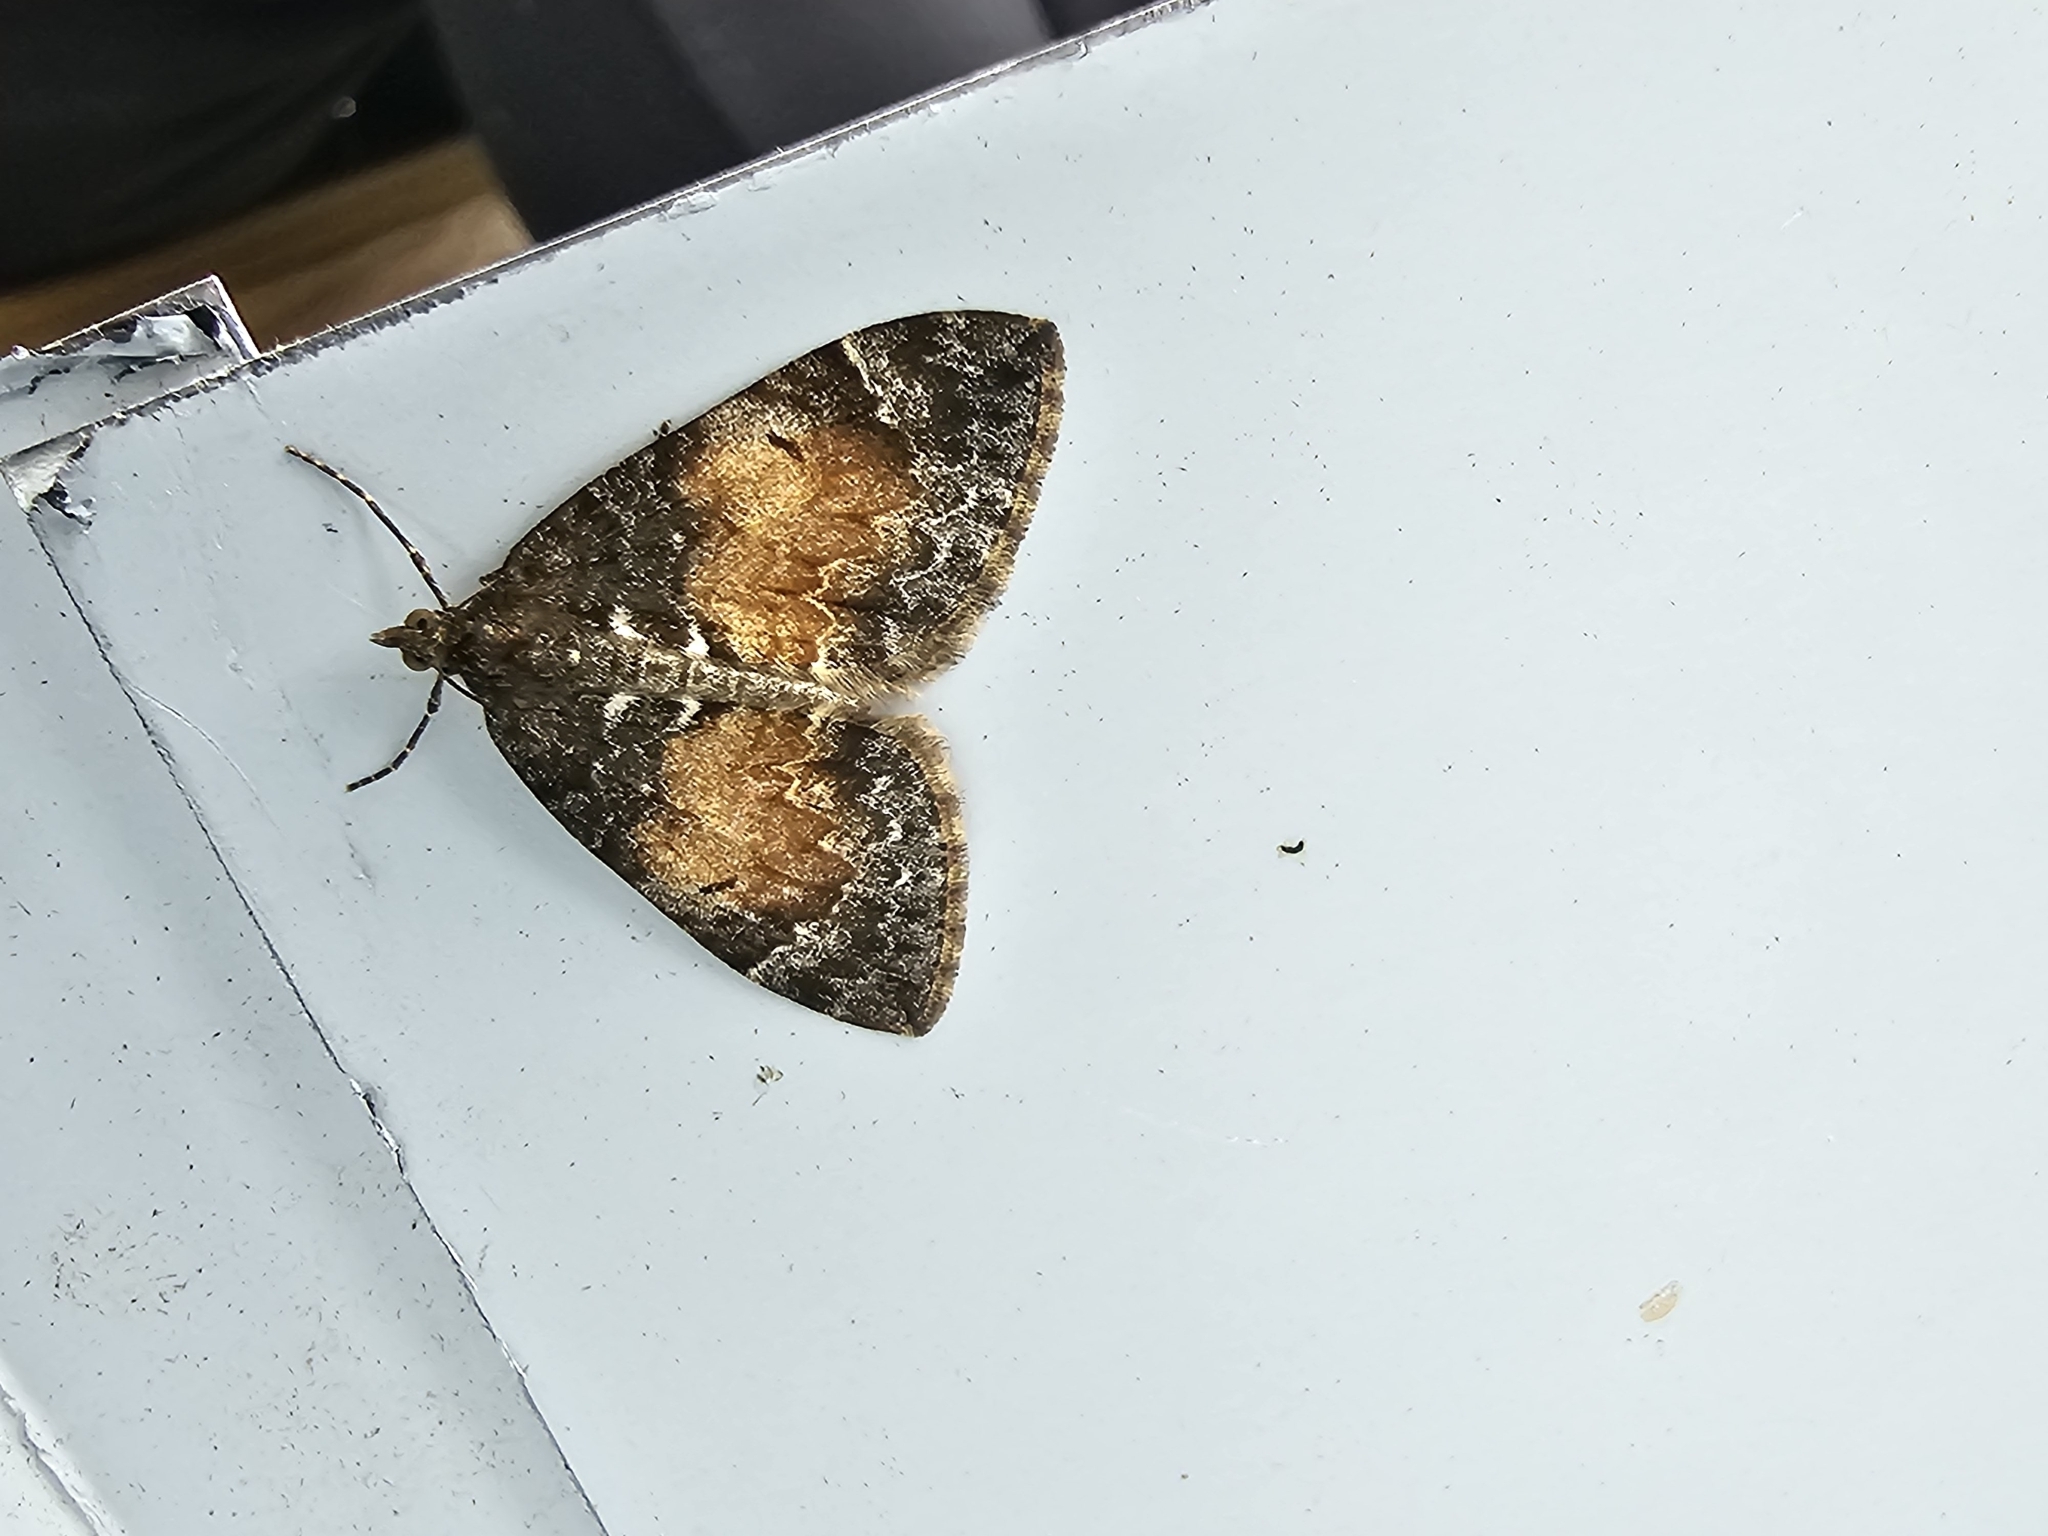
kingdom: Animalia
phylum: Arthropoda
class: Insecta
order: Lepidoptera
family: Geometridae
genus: Dysstroma
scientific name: Dysstroma truncata
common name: Common marbled carpet
